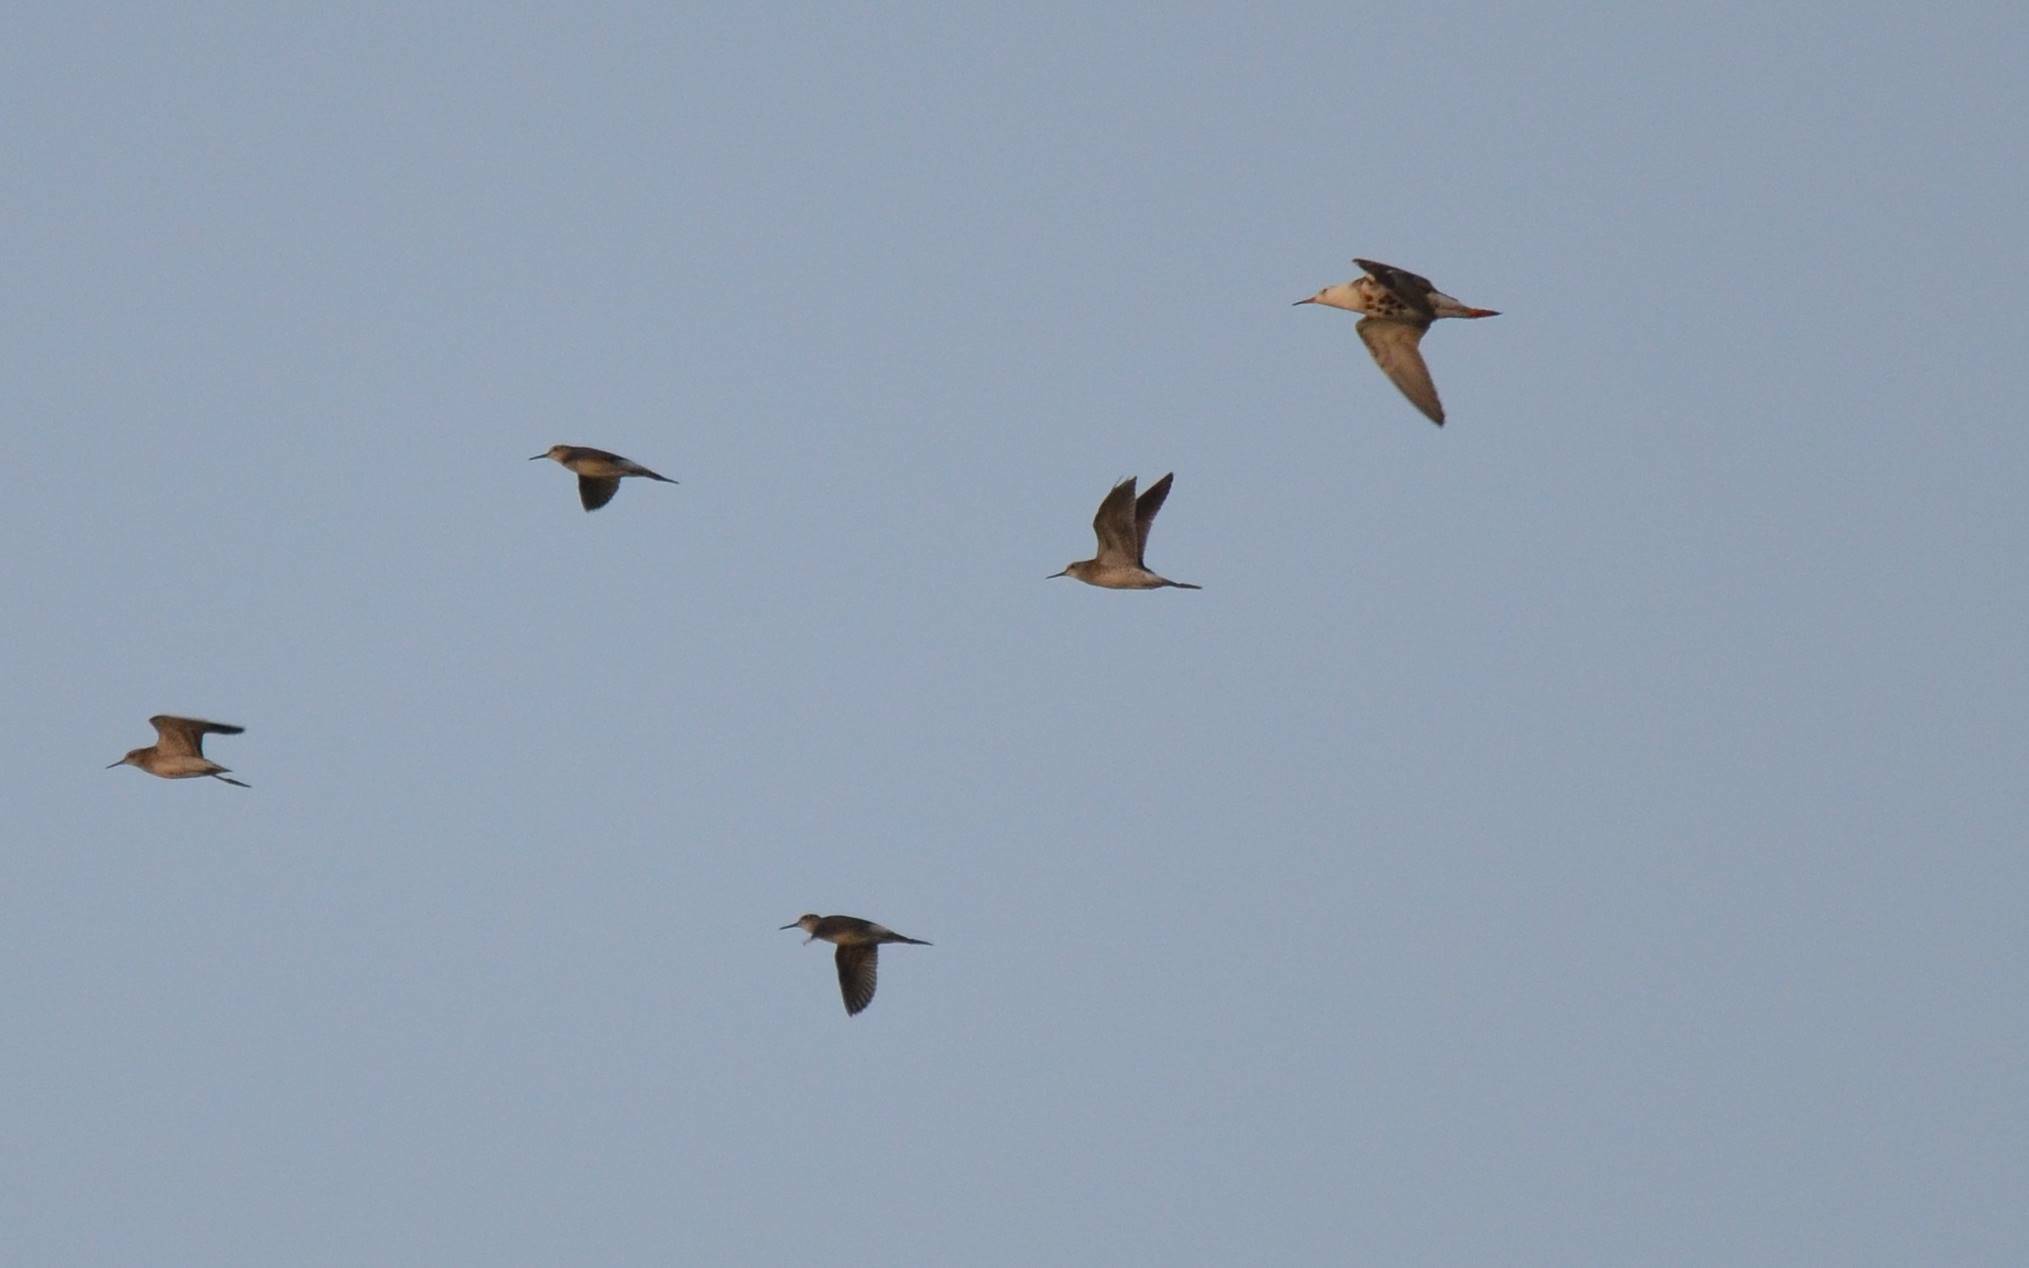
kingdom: Animalia
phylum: Chordata
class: Aves
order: Charadriiformes
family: Scolopacidae
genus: Calidris
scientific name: Calidris pugnax
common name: Ruff
